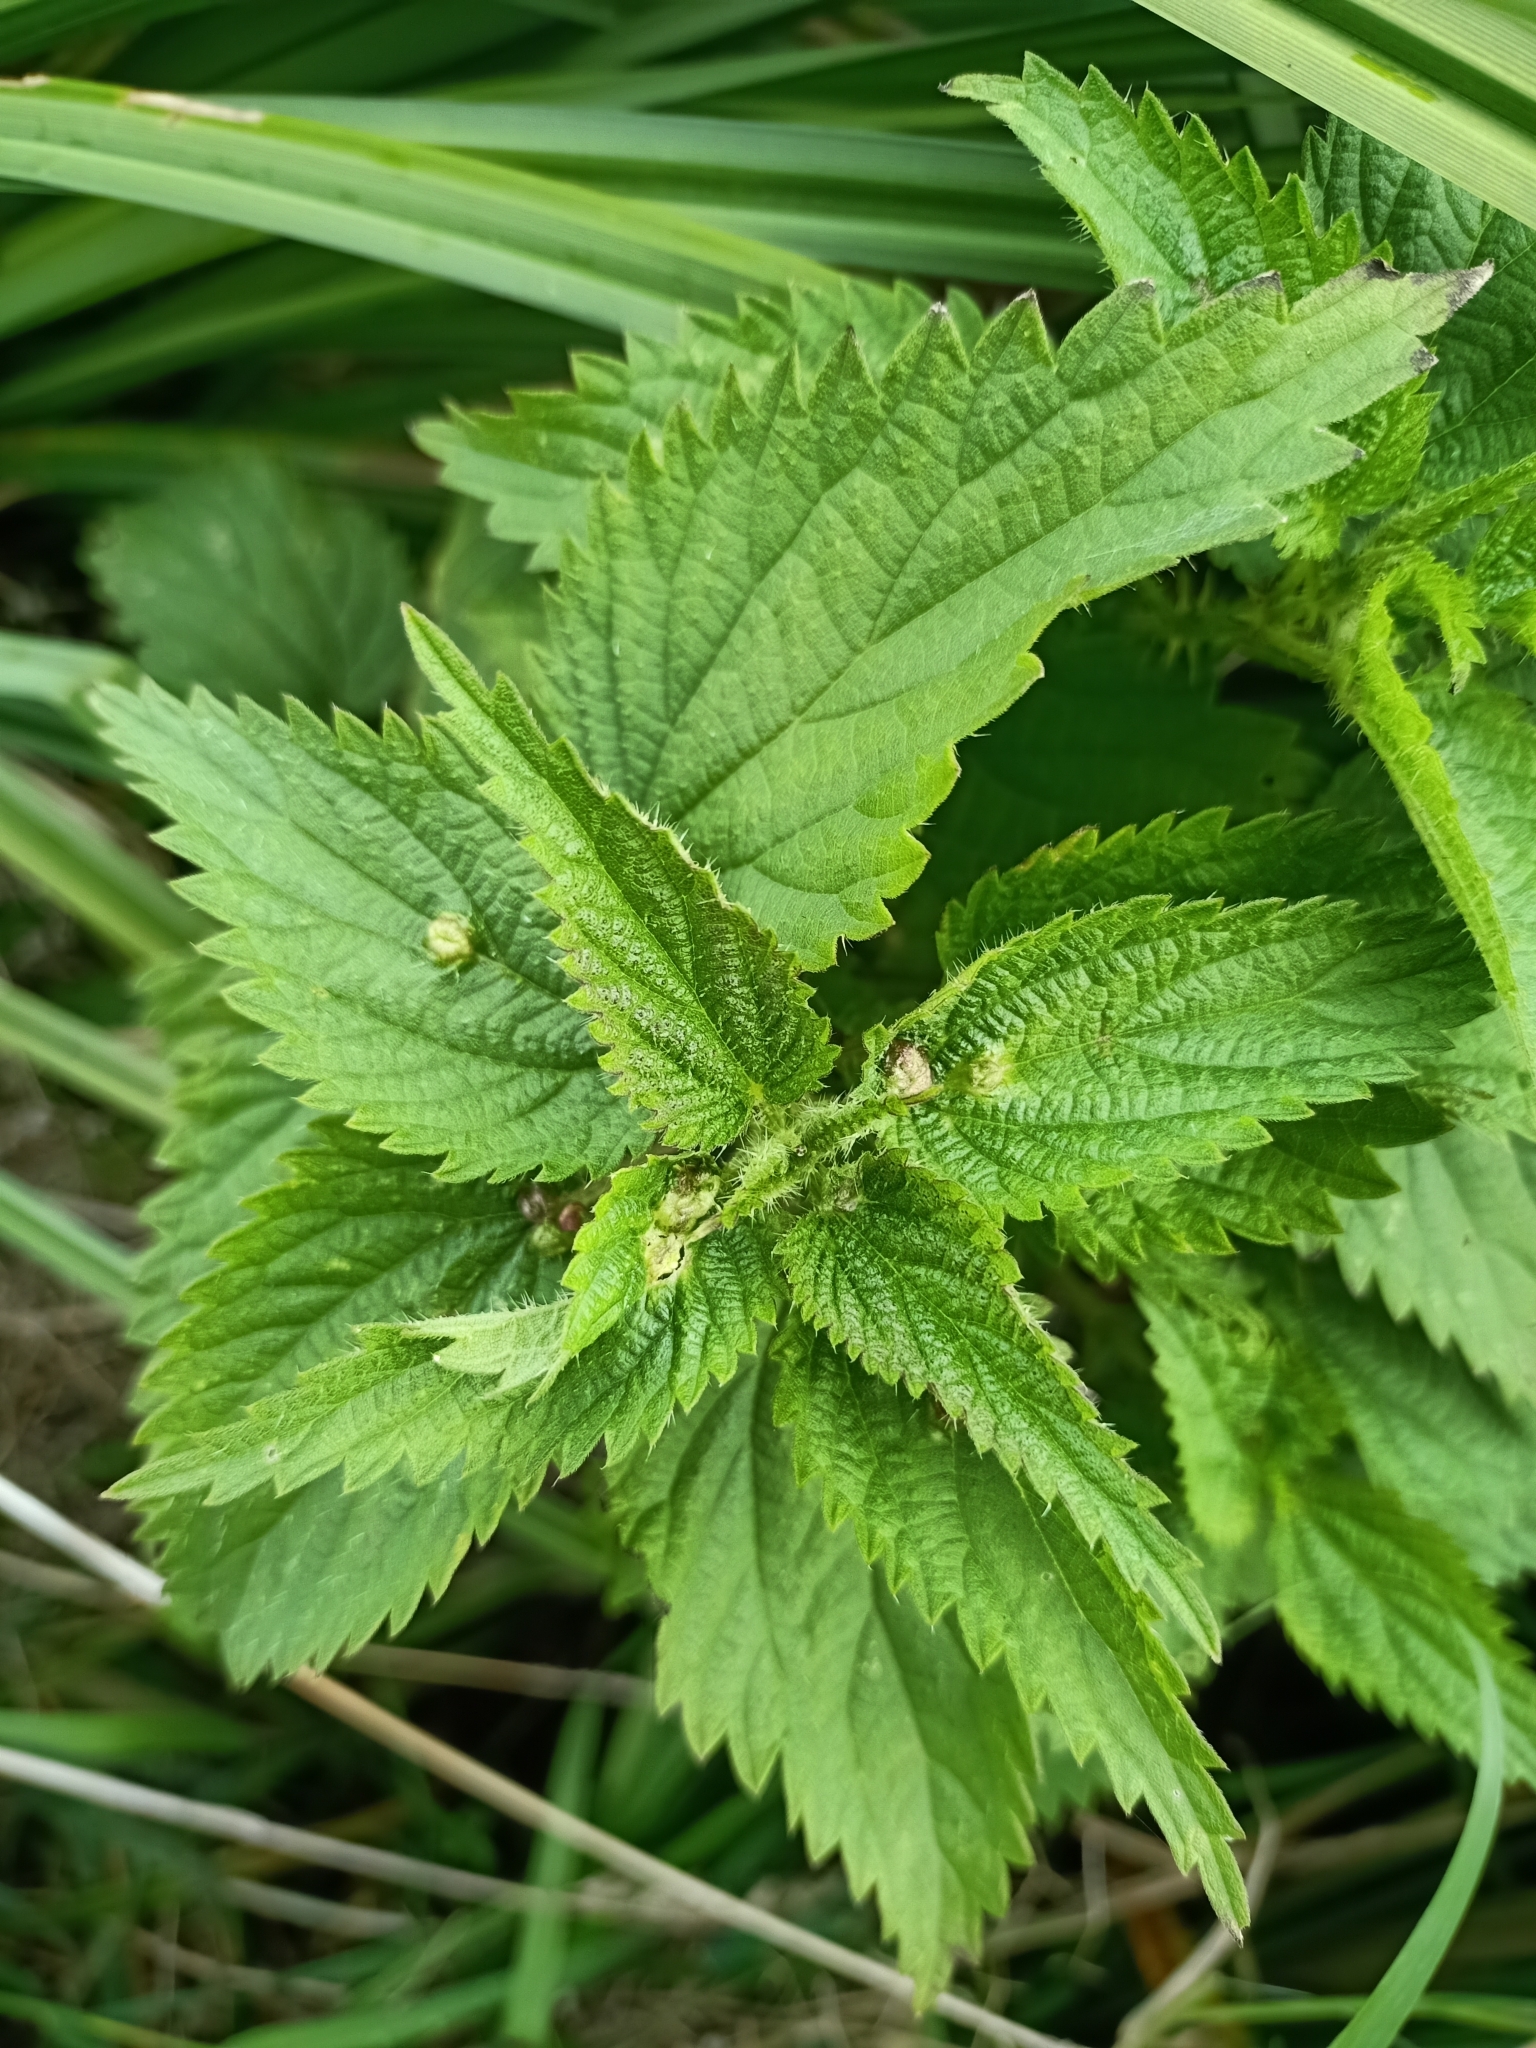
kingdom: Plantae
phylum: Tracheophyta
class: Magnoliopsida
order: Rosales
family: Urticaceae
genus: Urtica
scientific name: Urtica dioica
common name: Common nettle
